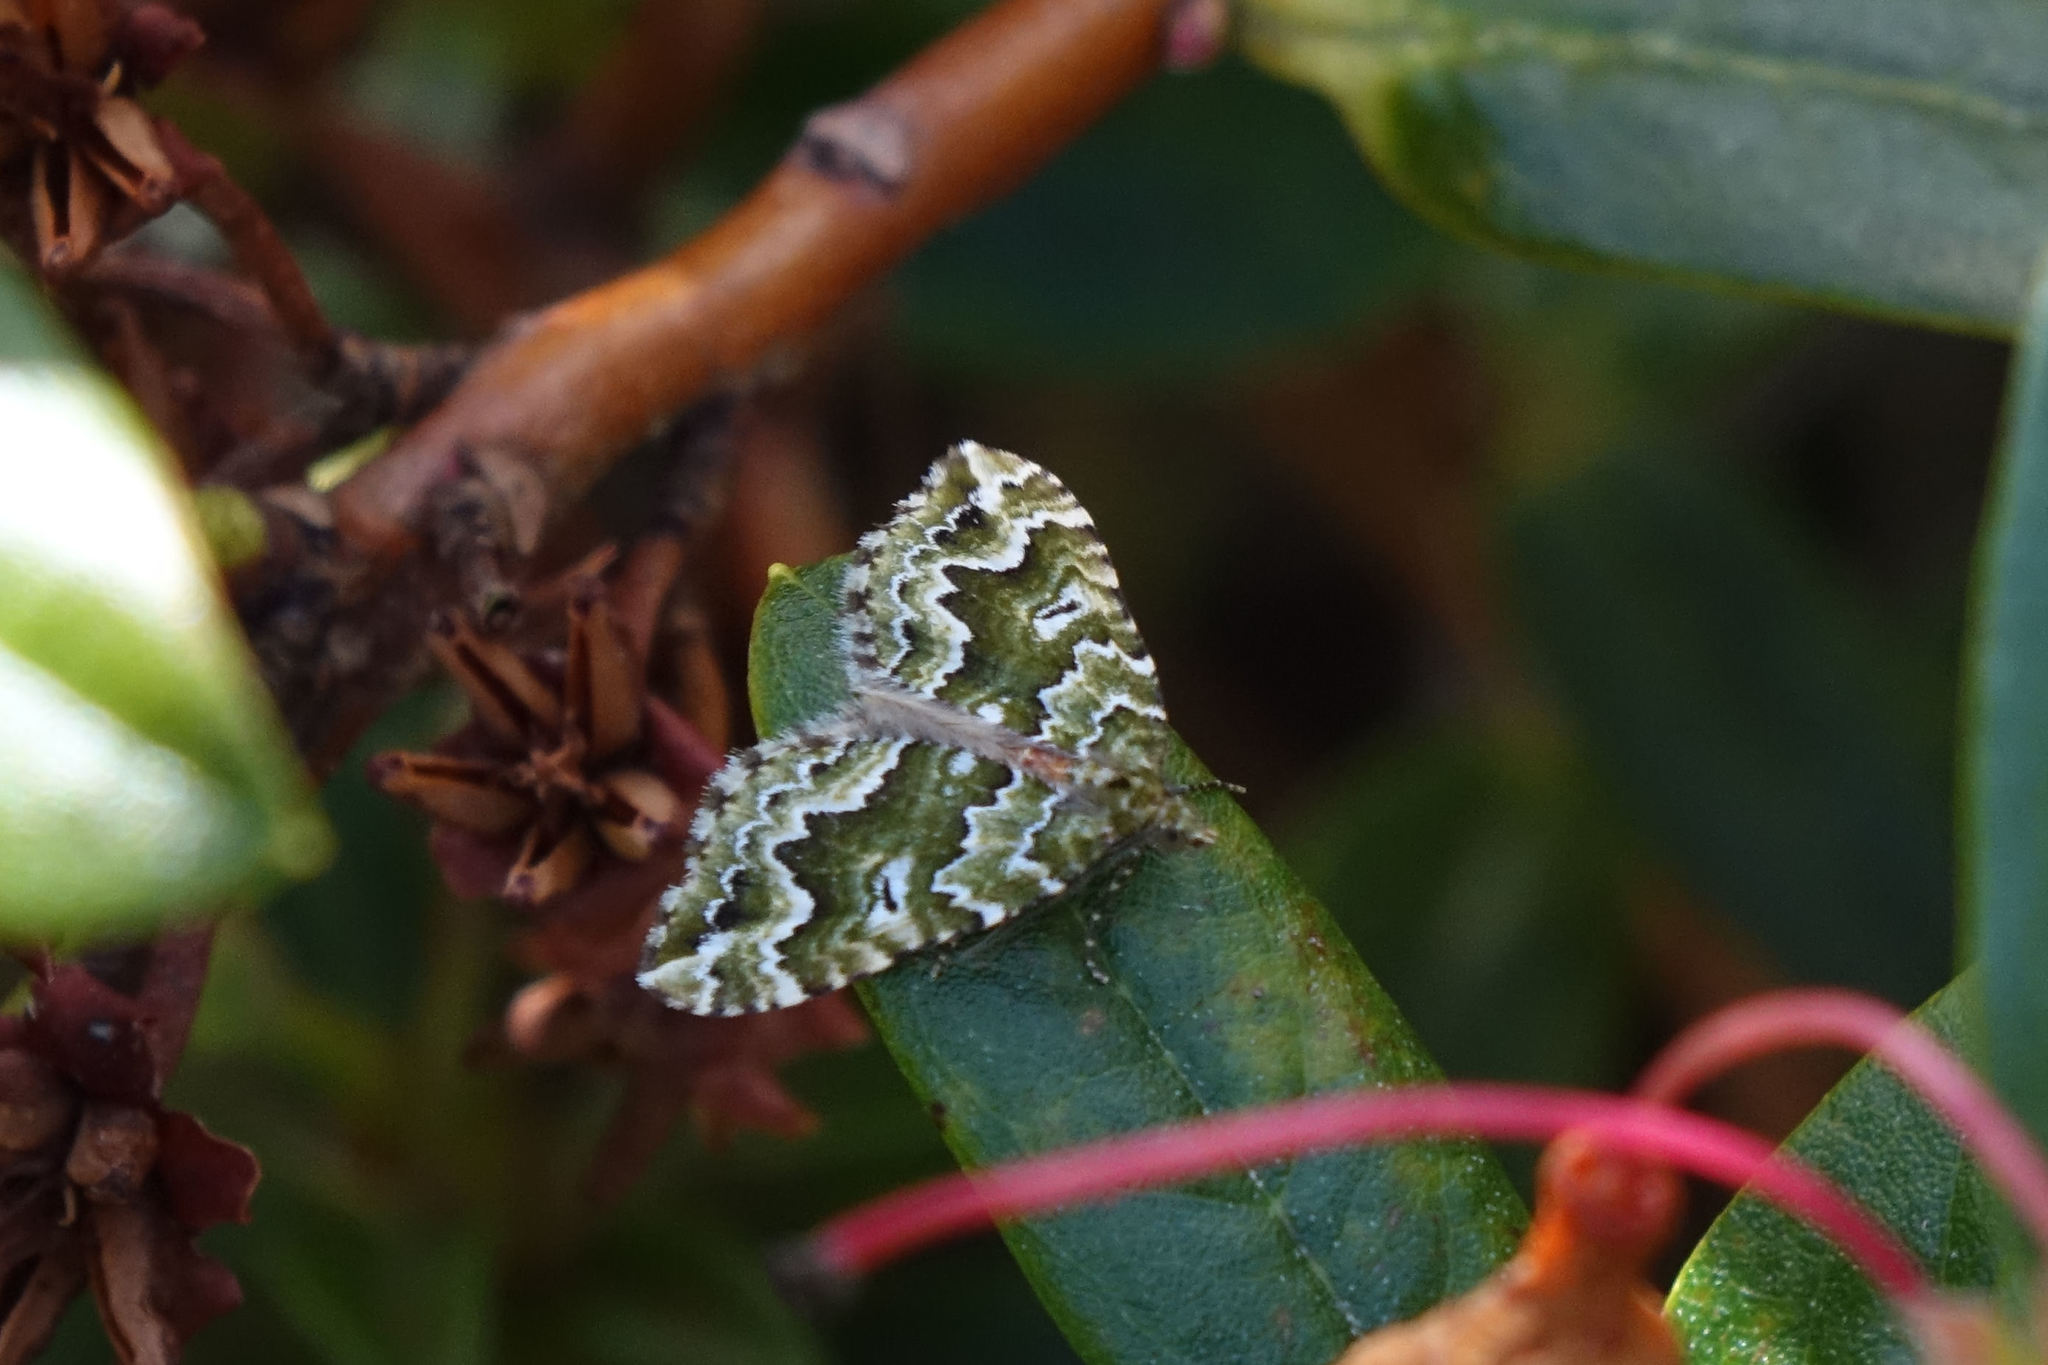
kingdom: Animalia
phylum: Arthropoda
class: Insecta
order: Lepidoptera
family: Geometridae
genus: Asaphodes
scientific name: Asaphodes beata
